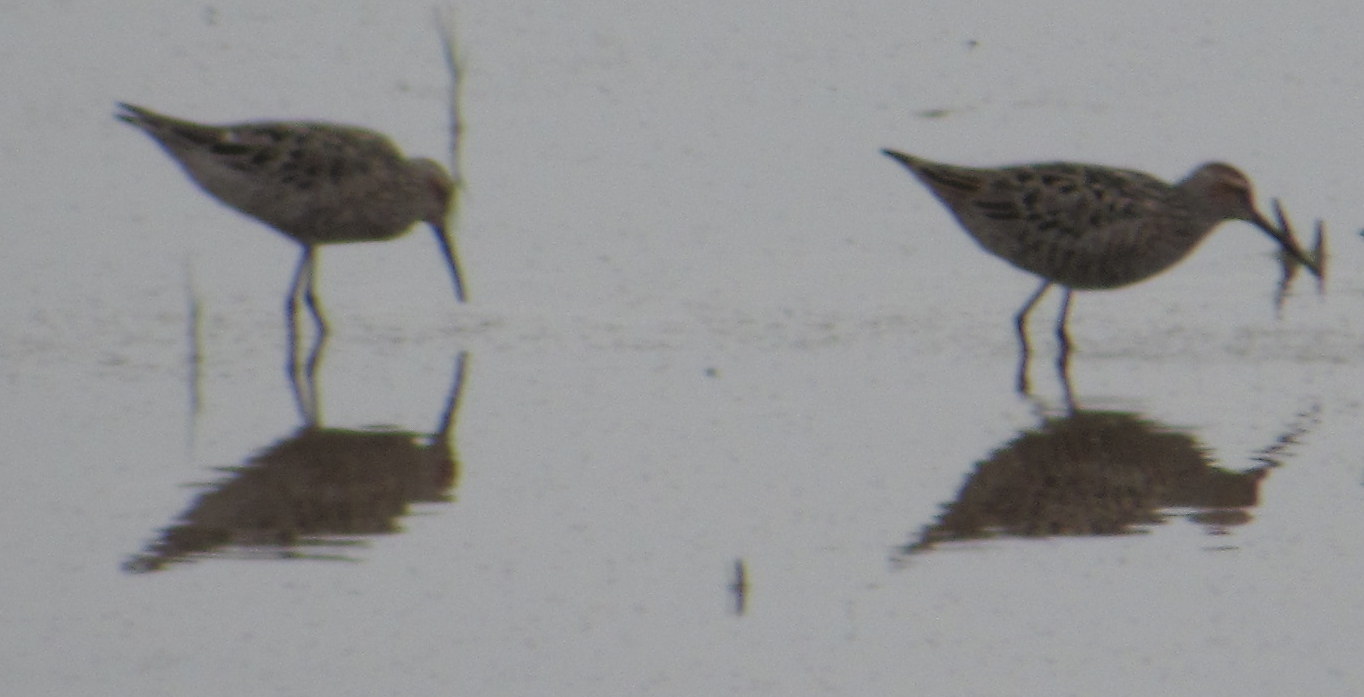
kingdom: Animalia
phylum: Chordata
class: Aves
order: Charadriiformes
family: Scolopacidae
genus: Calidris
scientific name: Calidris himantopus
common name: Stilt sandpiper
